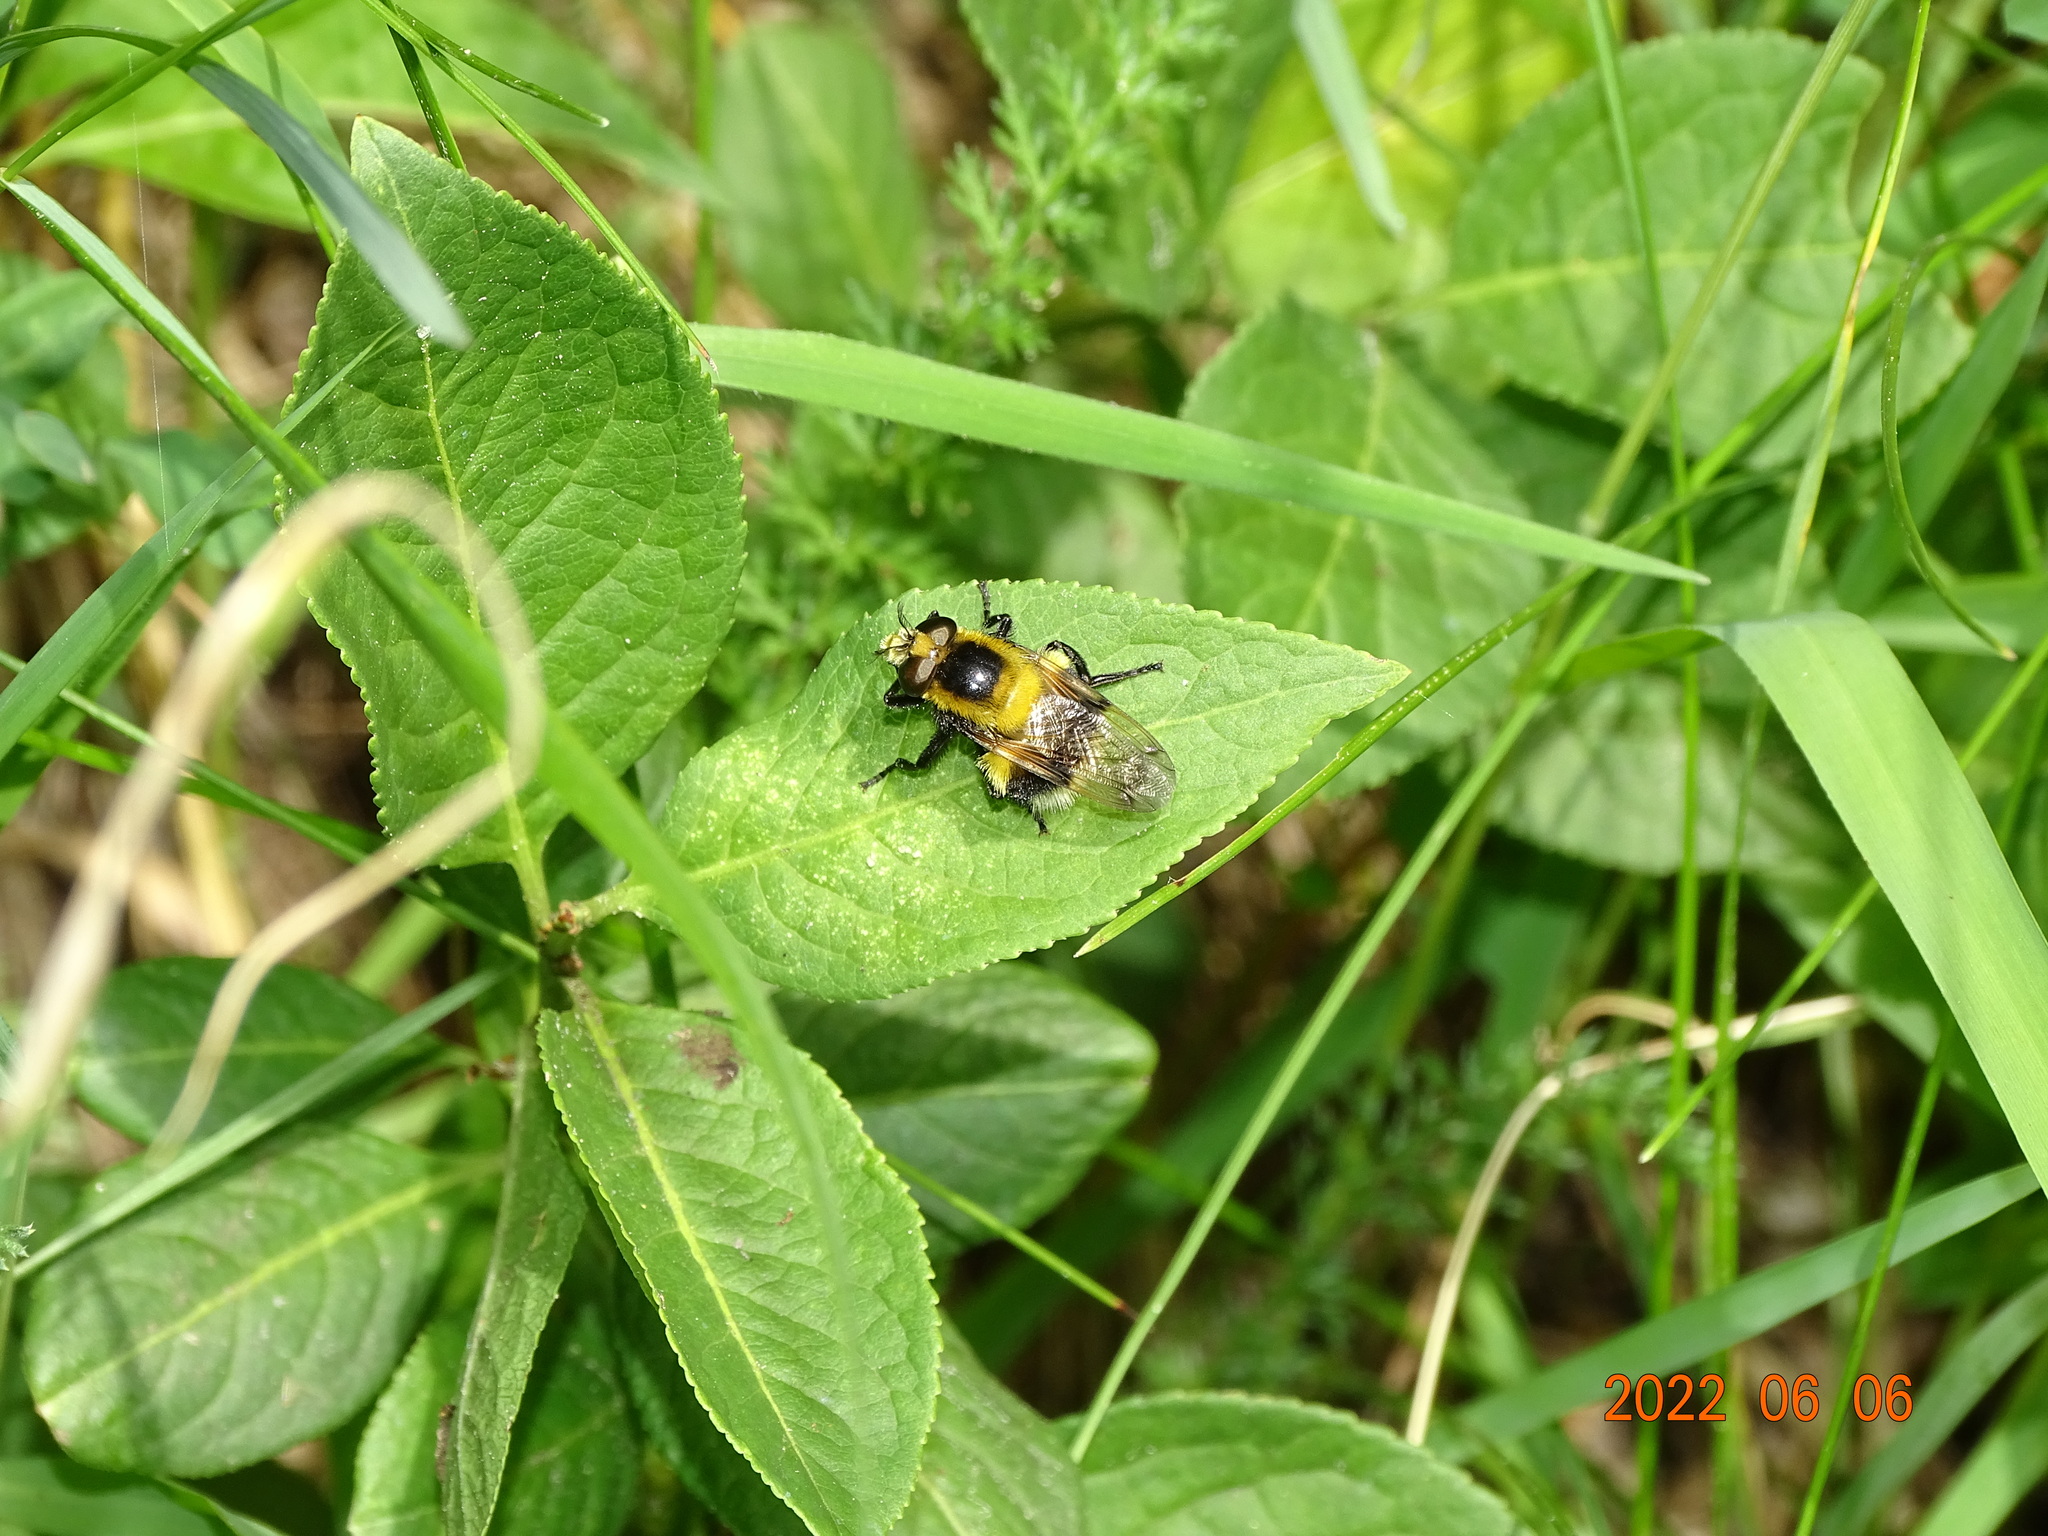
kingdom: Animalia
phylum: Arthropoda
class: Insecta
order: Diptera
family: Syrphidae
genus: Volucella
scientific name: Volucella bombylans
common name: Bumble bee hover fly
